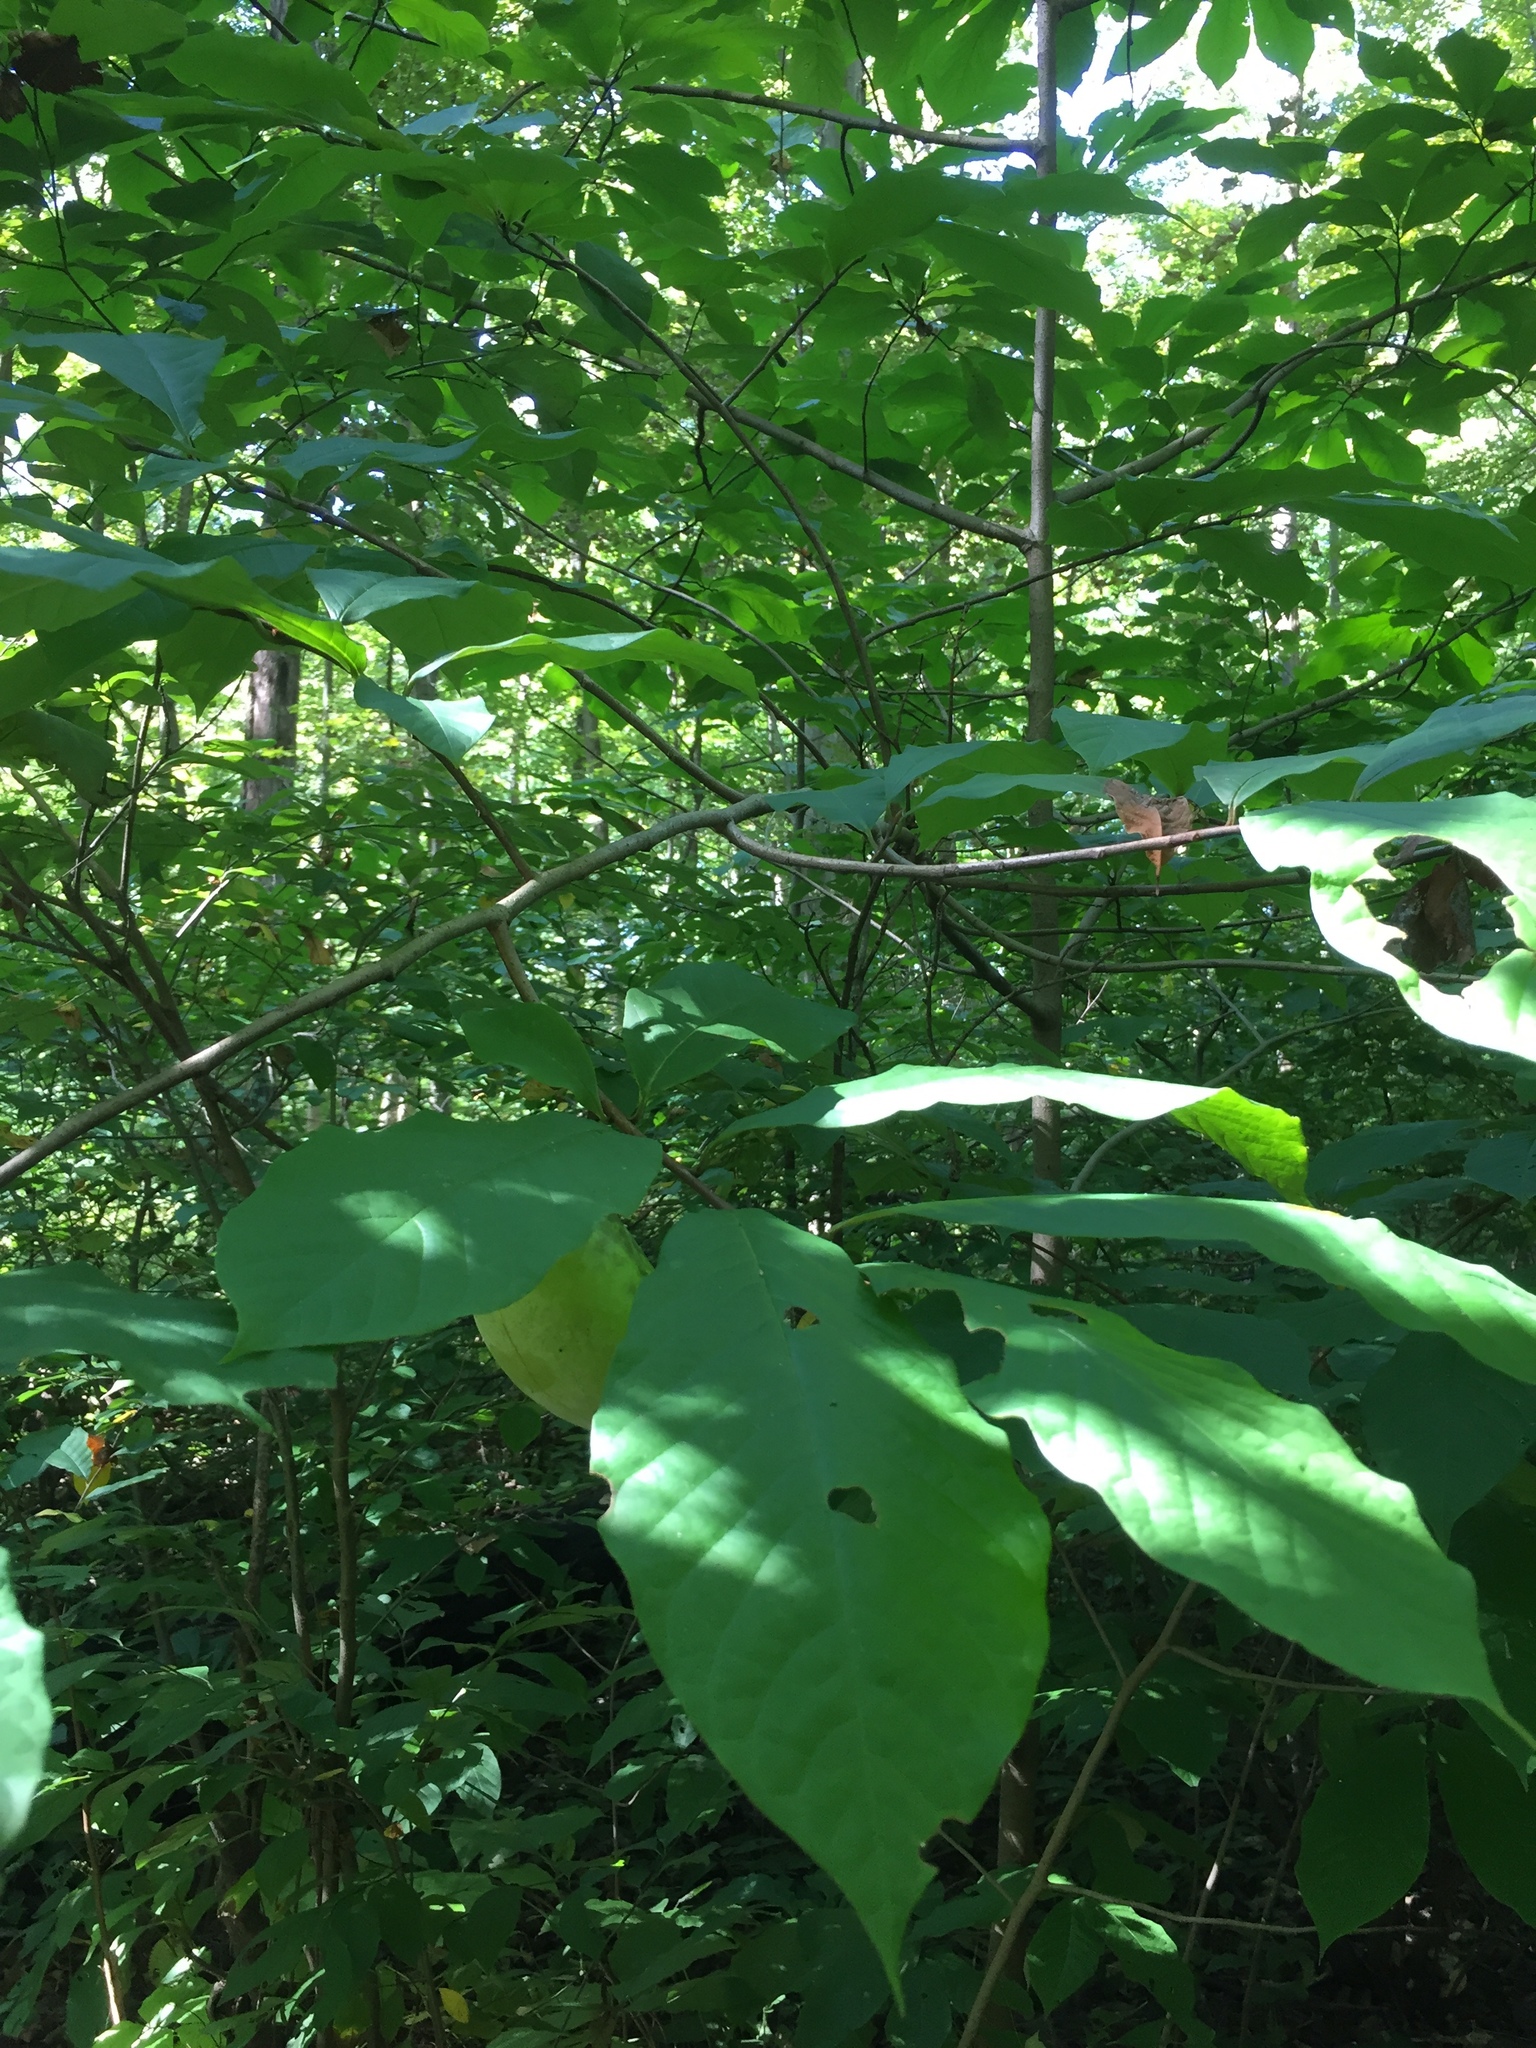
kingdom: Plantae
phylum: Tracheophyta
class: Magnoliopsida
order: Magnoliales
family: Annonaceae
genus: Asimina
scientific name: Asimina triloba
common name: Dog-banana
